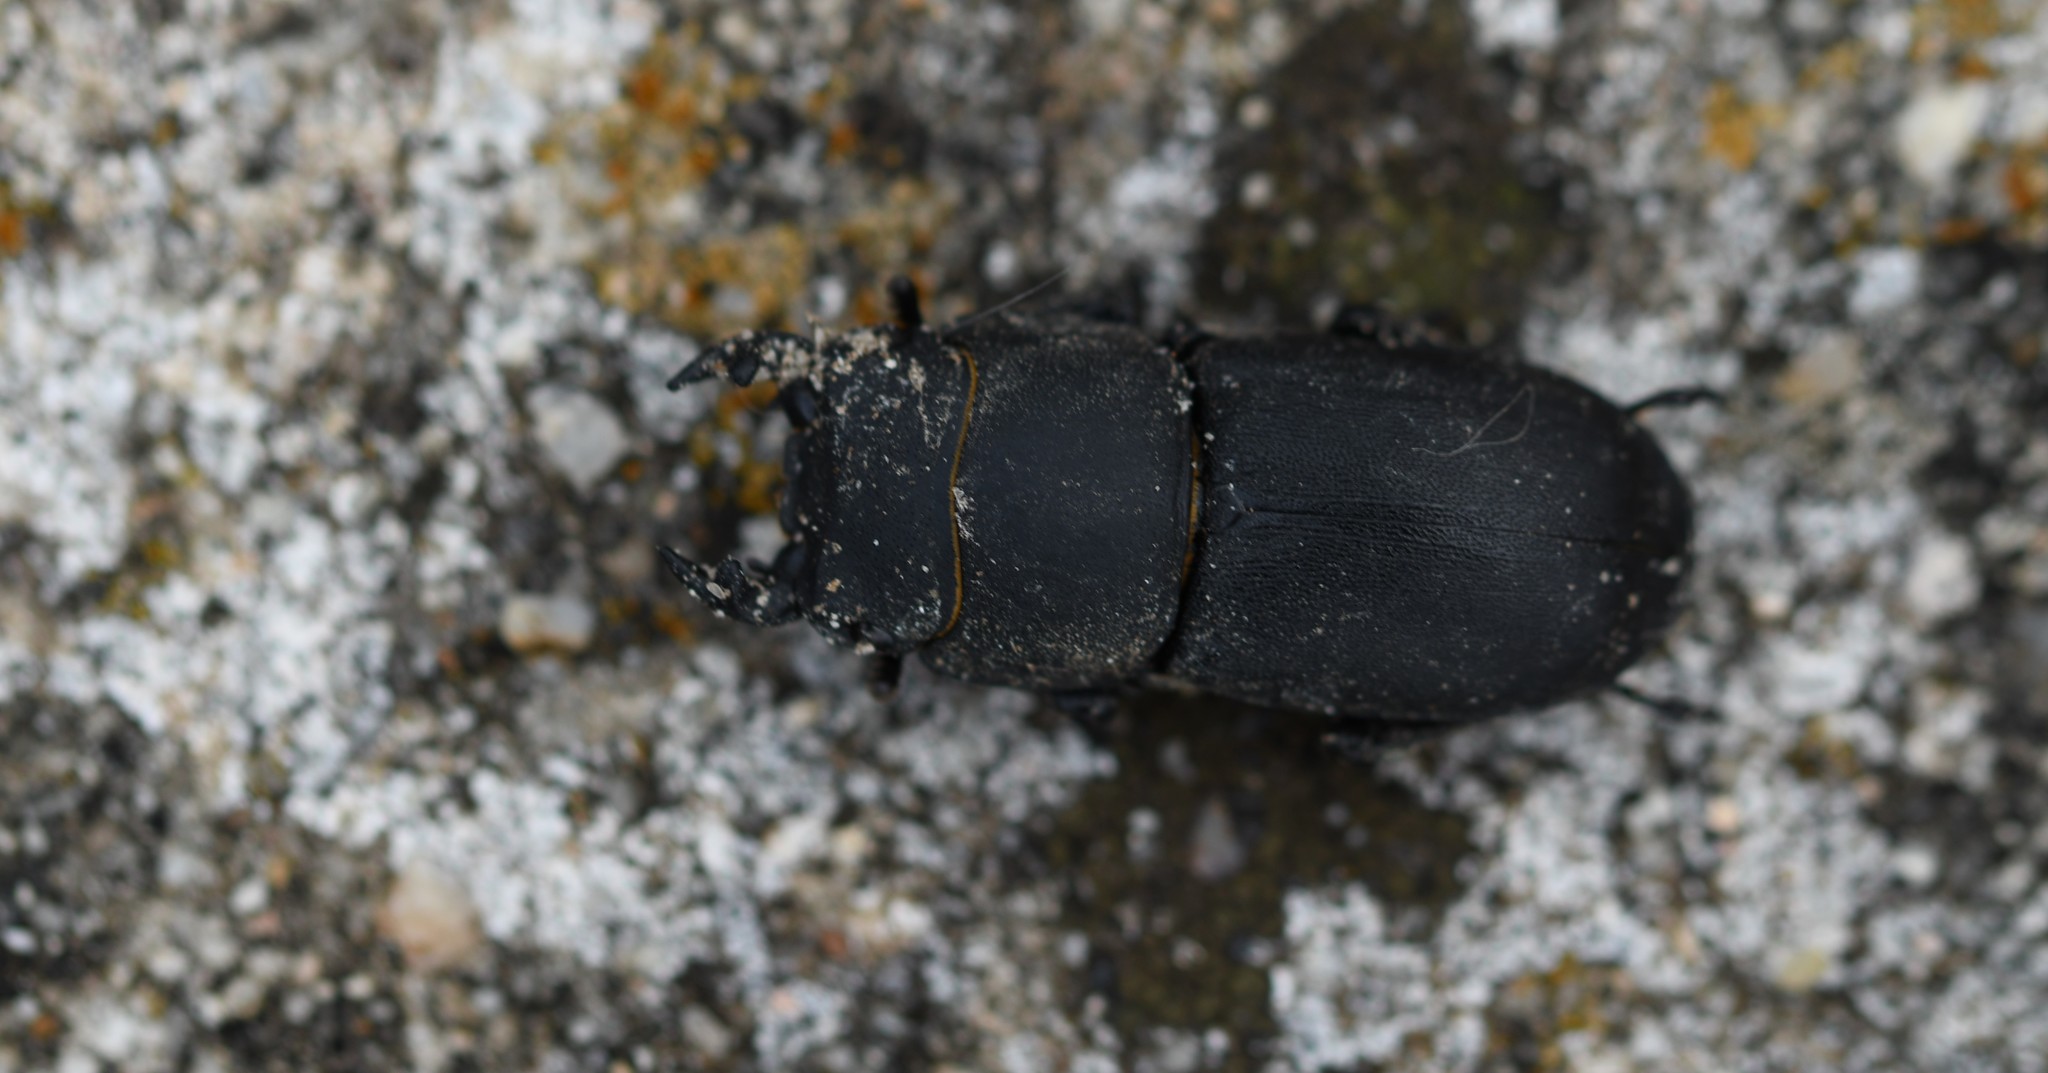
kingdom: Animalia
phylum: Arthropoda
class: Insecta
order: Coleoptera
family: Lucanidae
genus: Dorcus
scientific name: Dorcus parallelipipedus
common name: Lesser stag beetle
